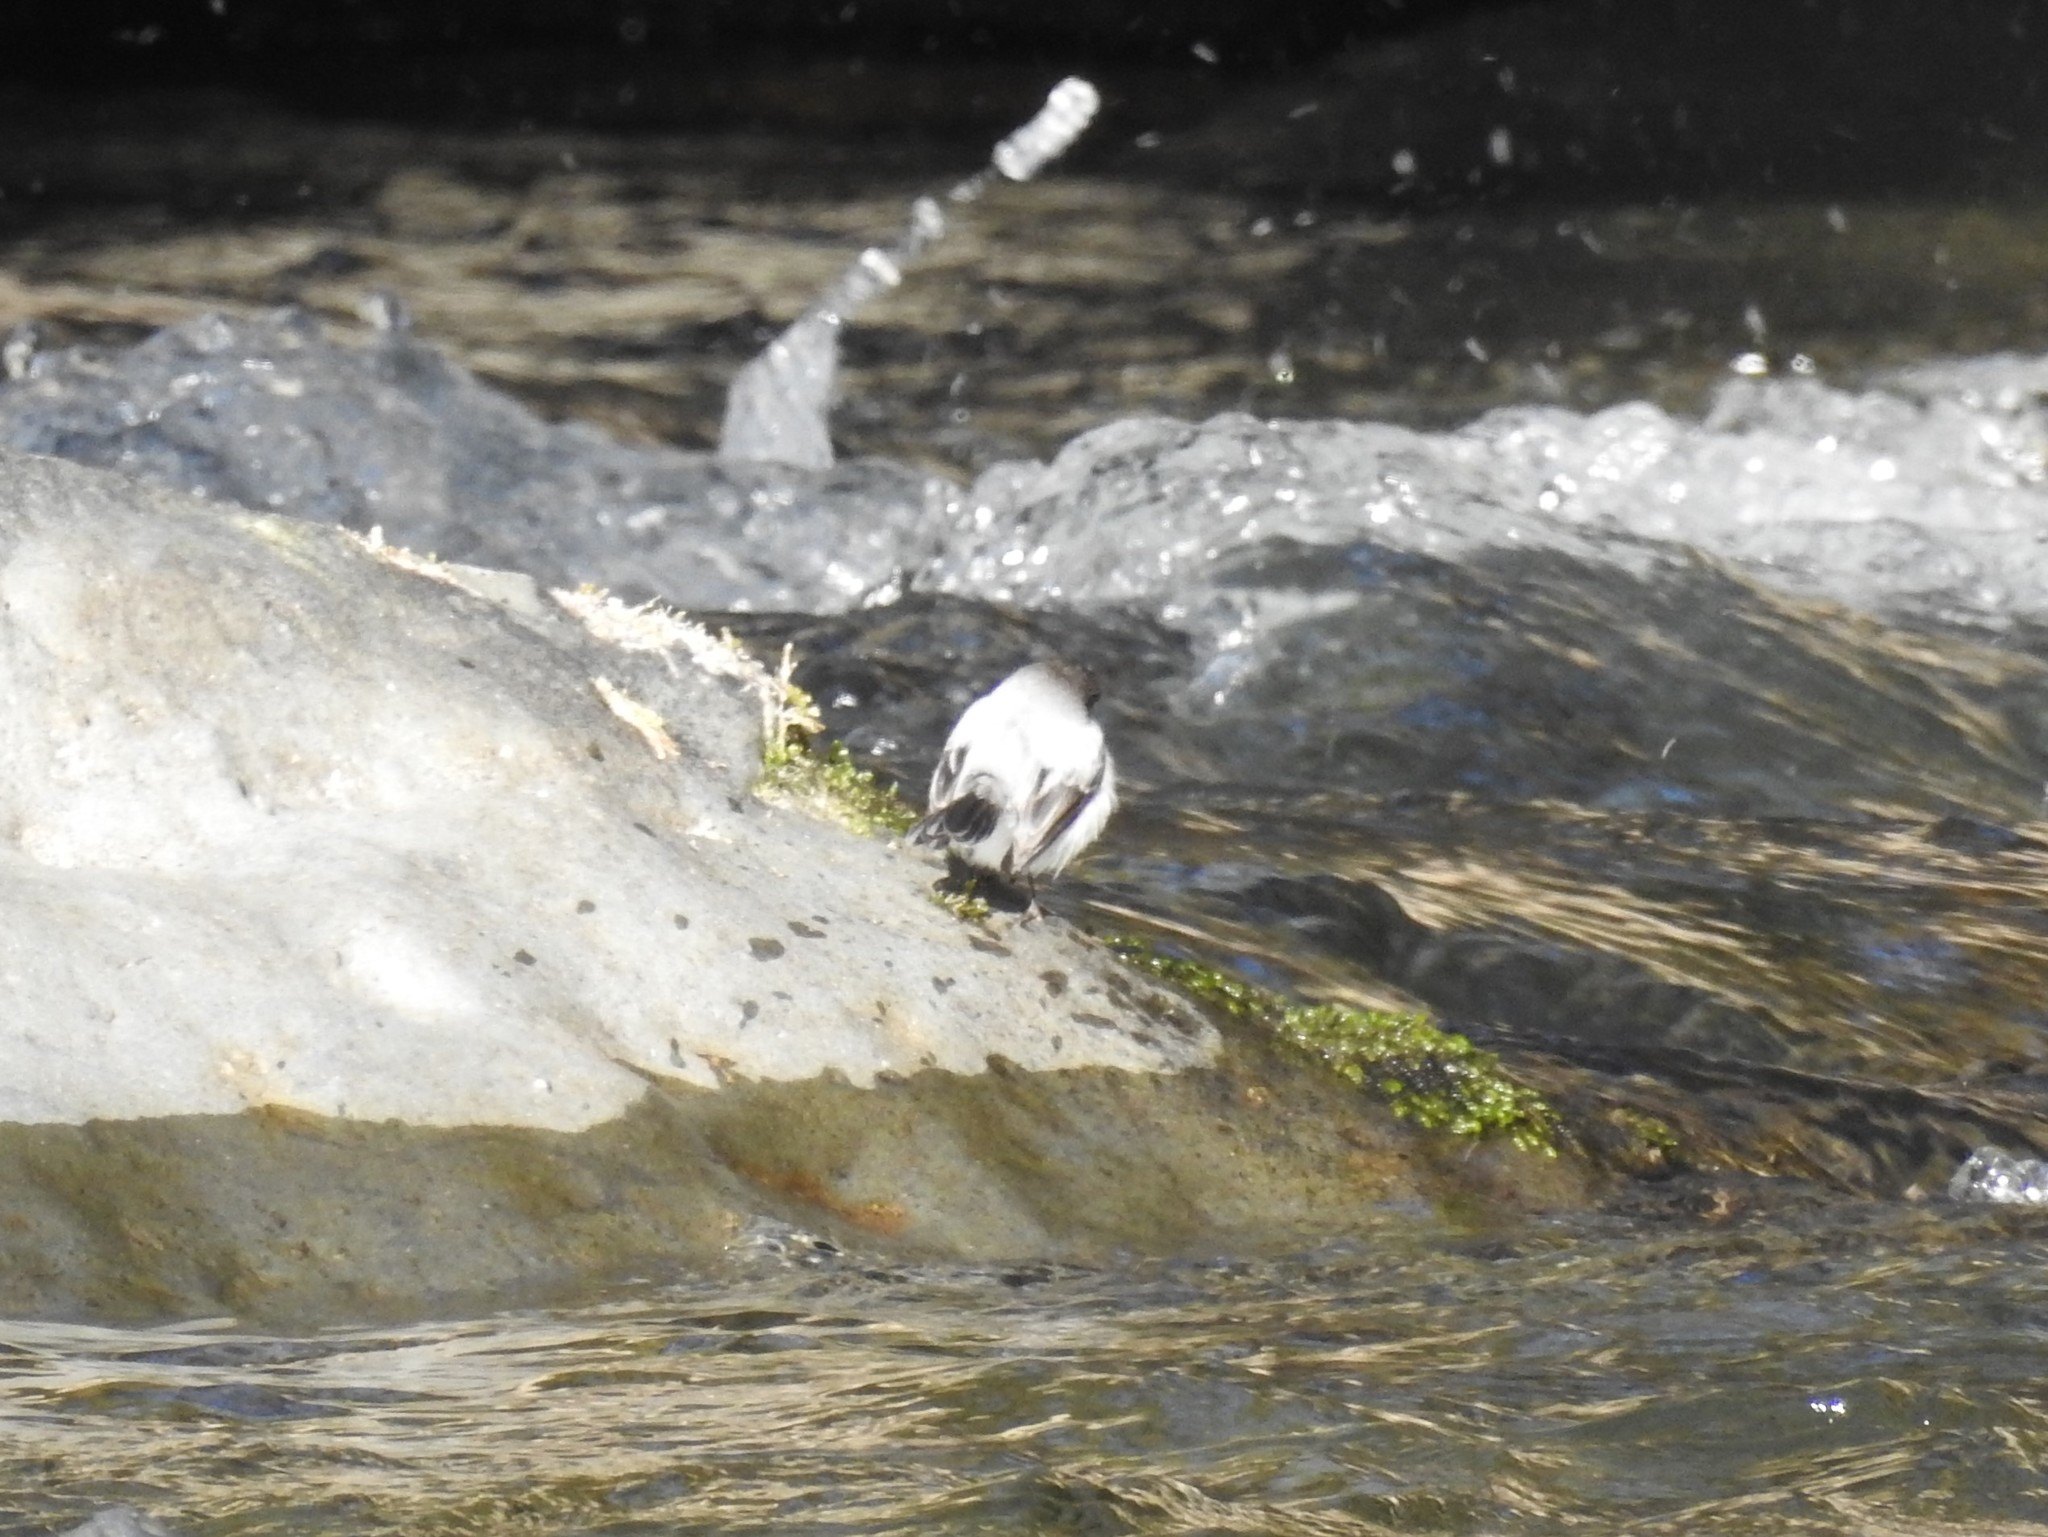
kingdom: Animalia
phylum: Chordata
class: Aves
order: Passeriformes
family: Tyrannidae
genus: Serpophaga
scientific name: Serpophaga cinerea
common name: Torrent tyrannulet
